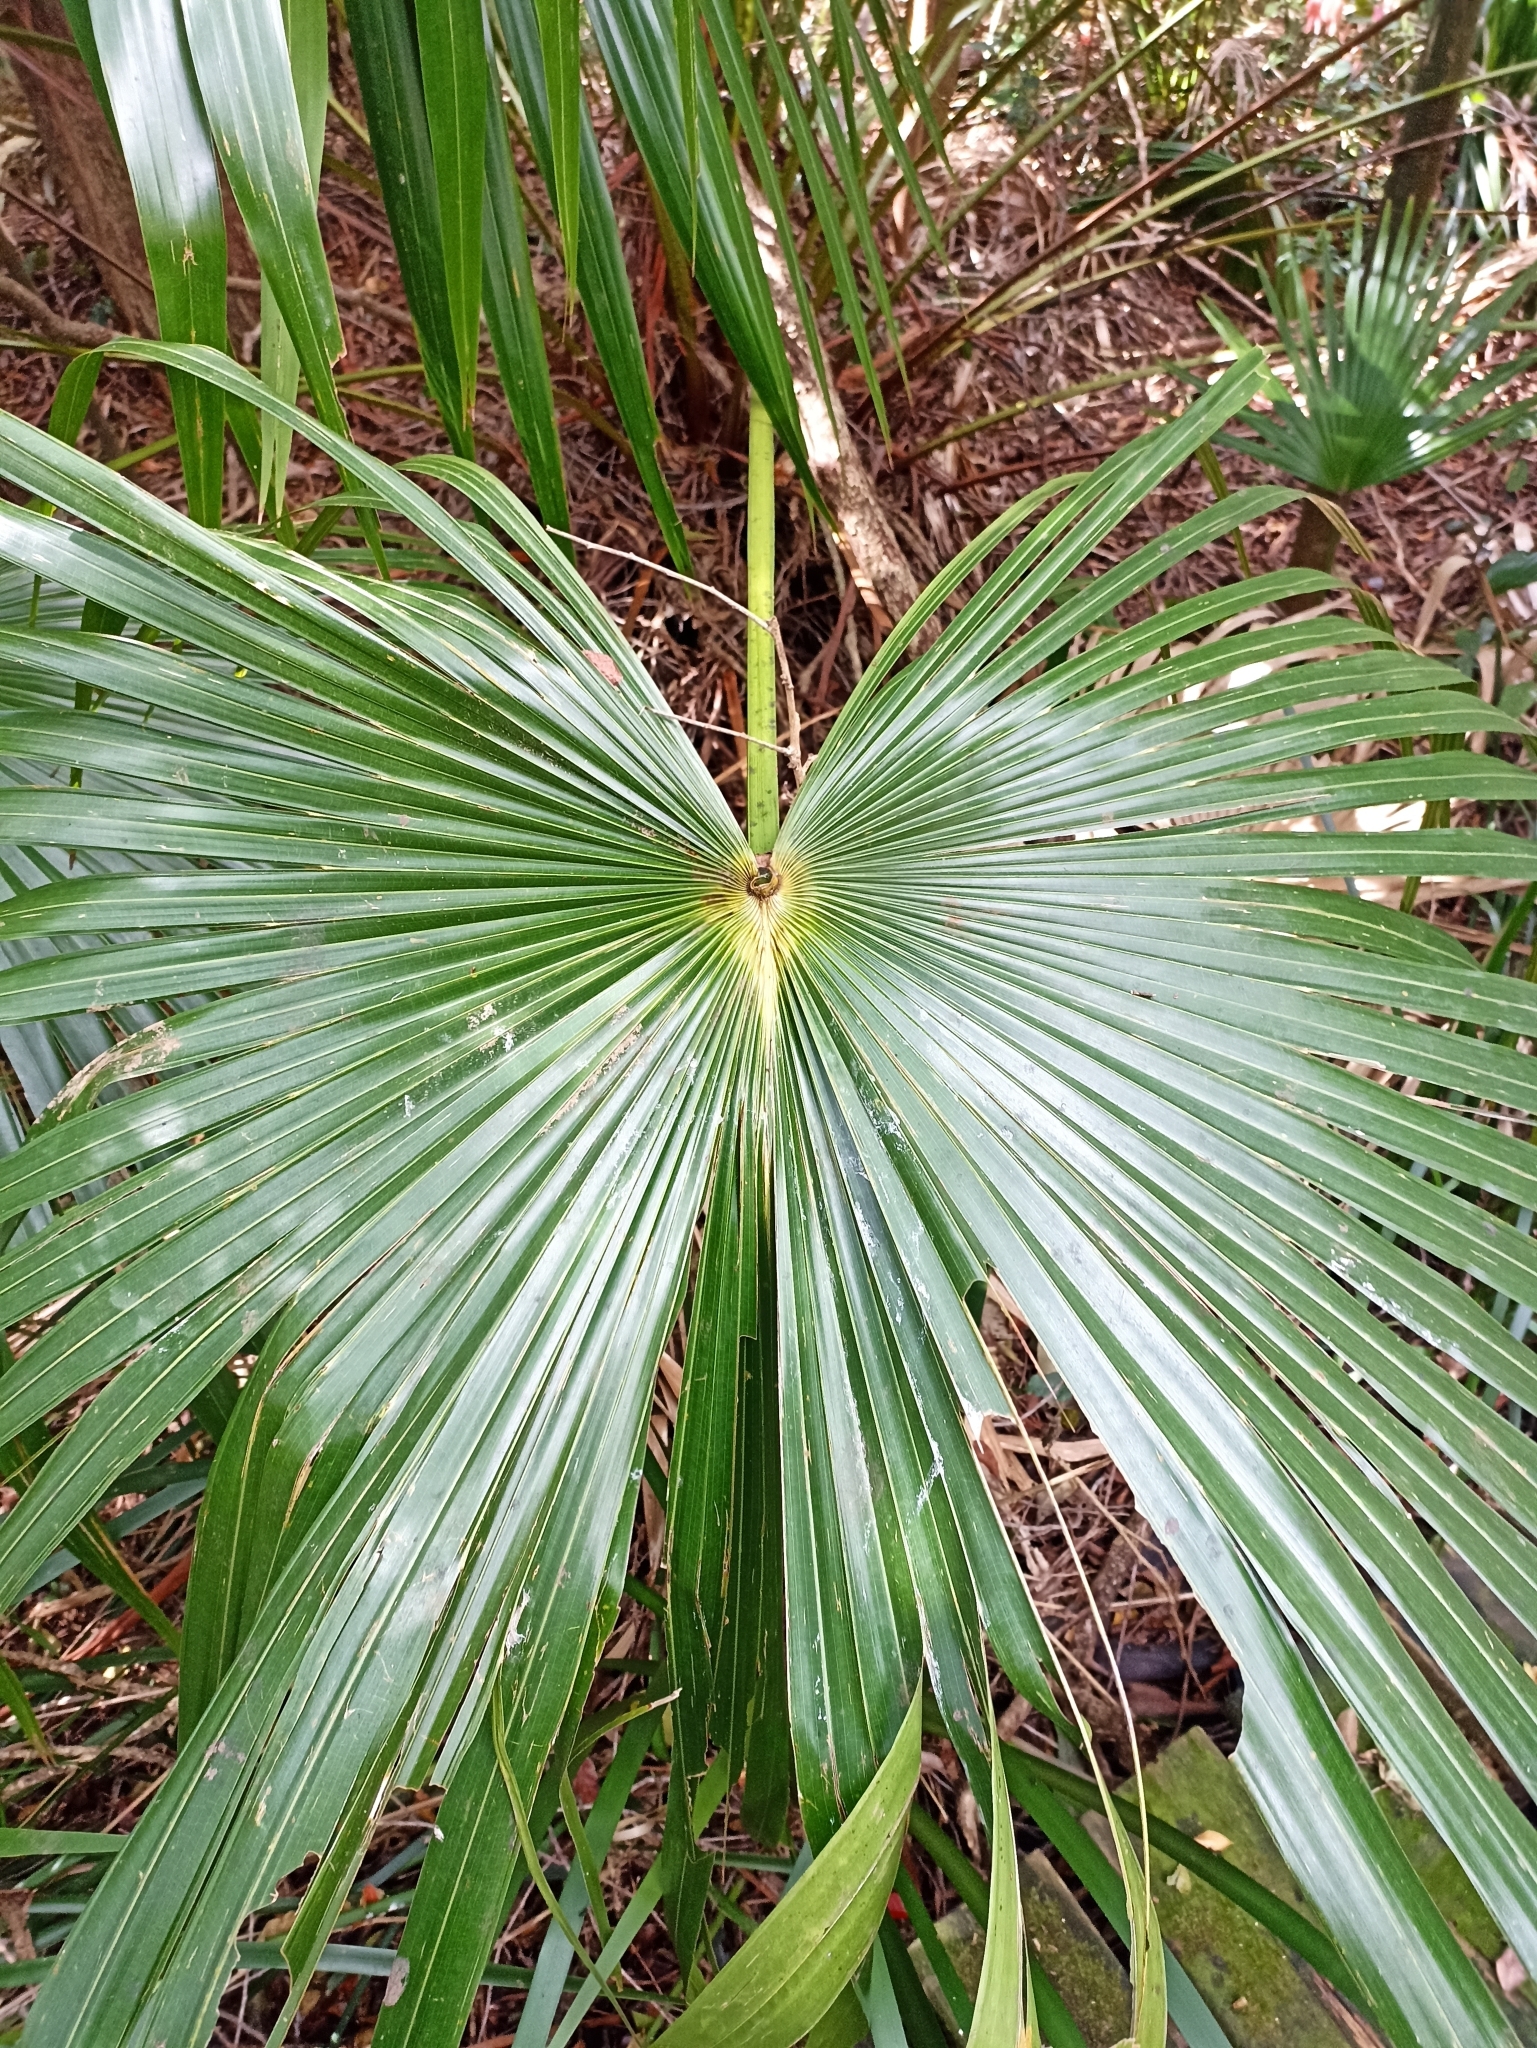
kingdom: Plantae
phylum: Tracheophyta
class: Liliopsida
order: Arecales
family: Arecaceae
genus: Livistona
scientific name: Livistona australis
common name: Cabbage fan palm
